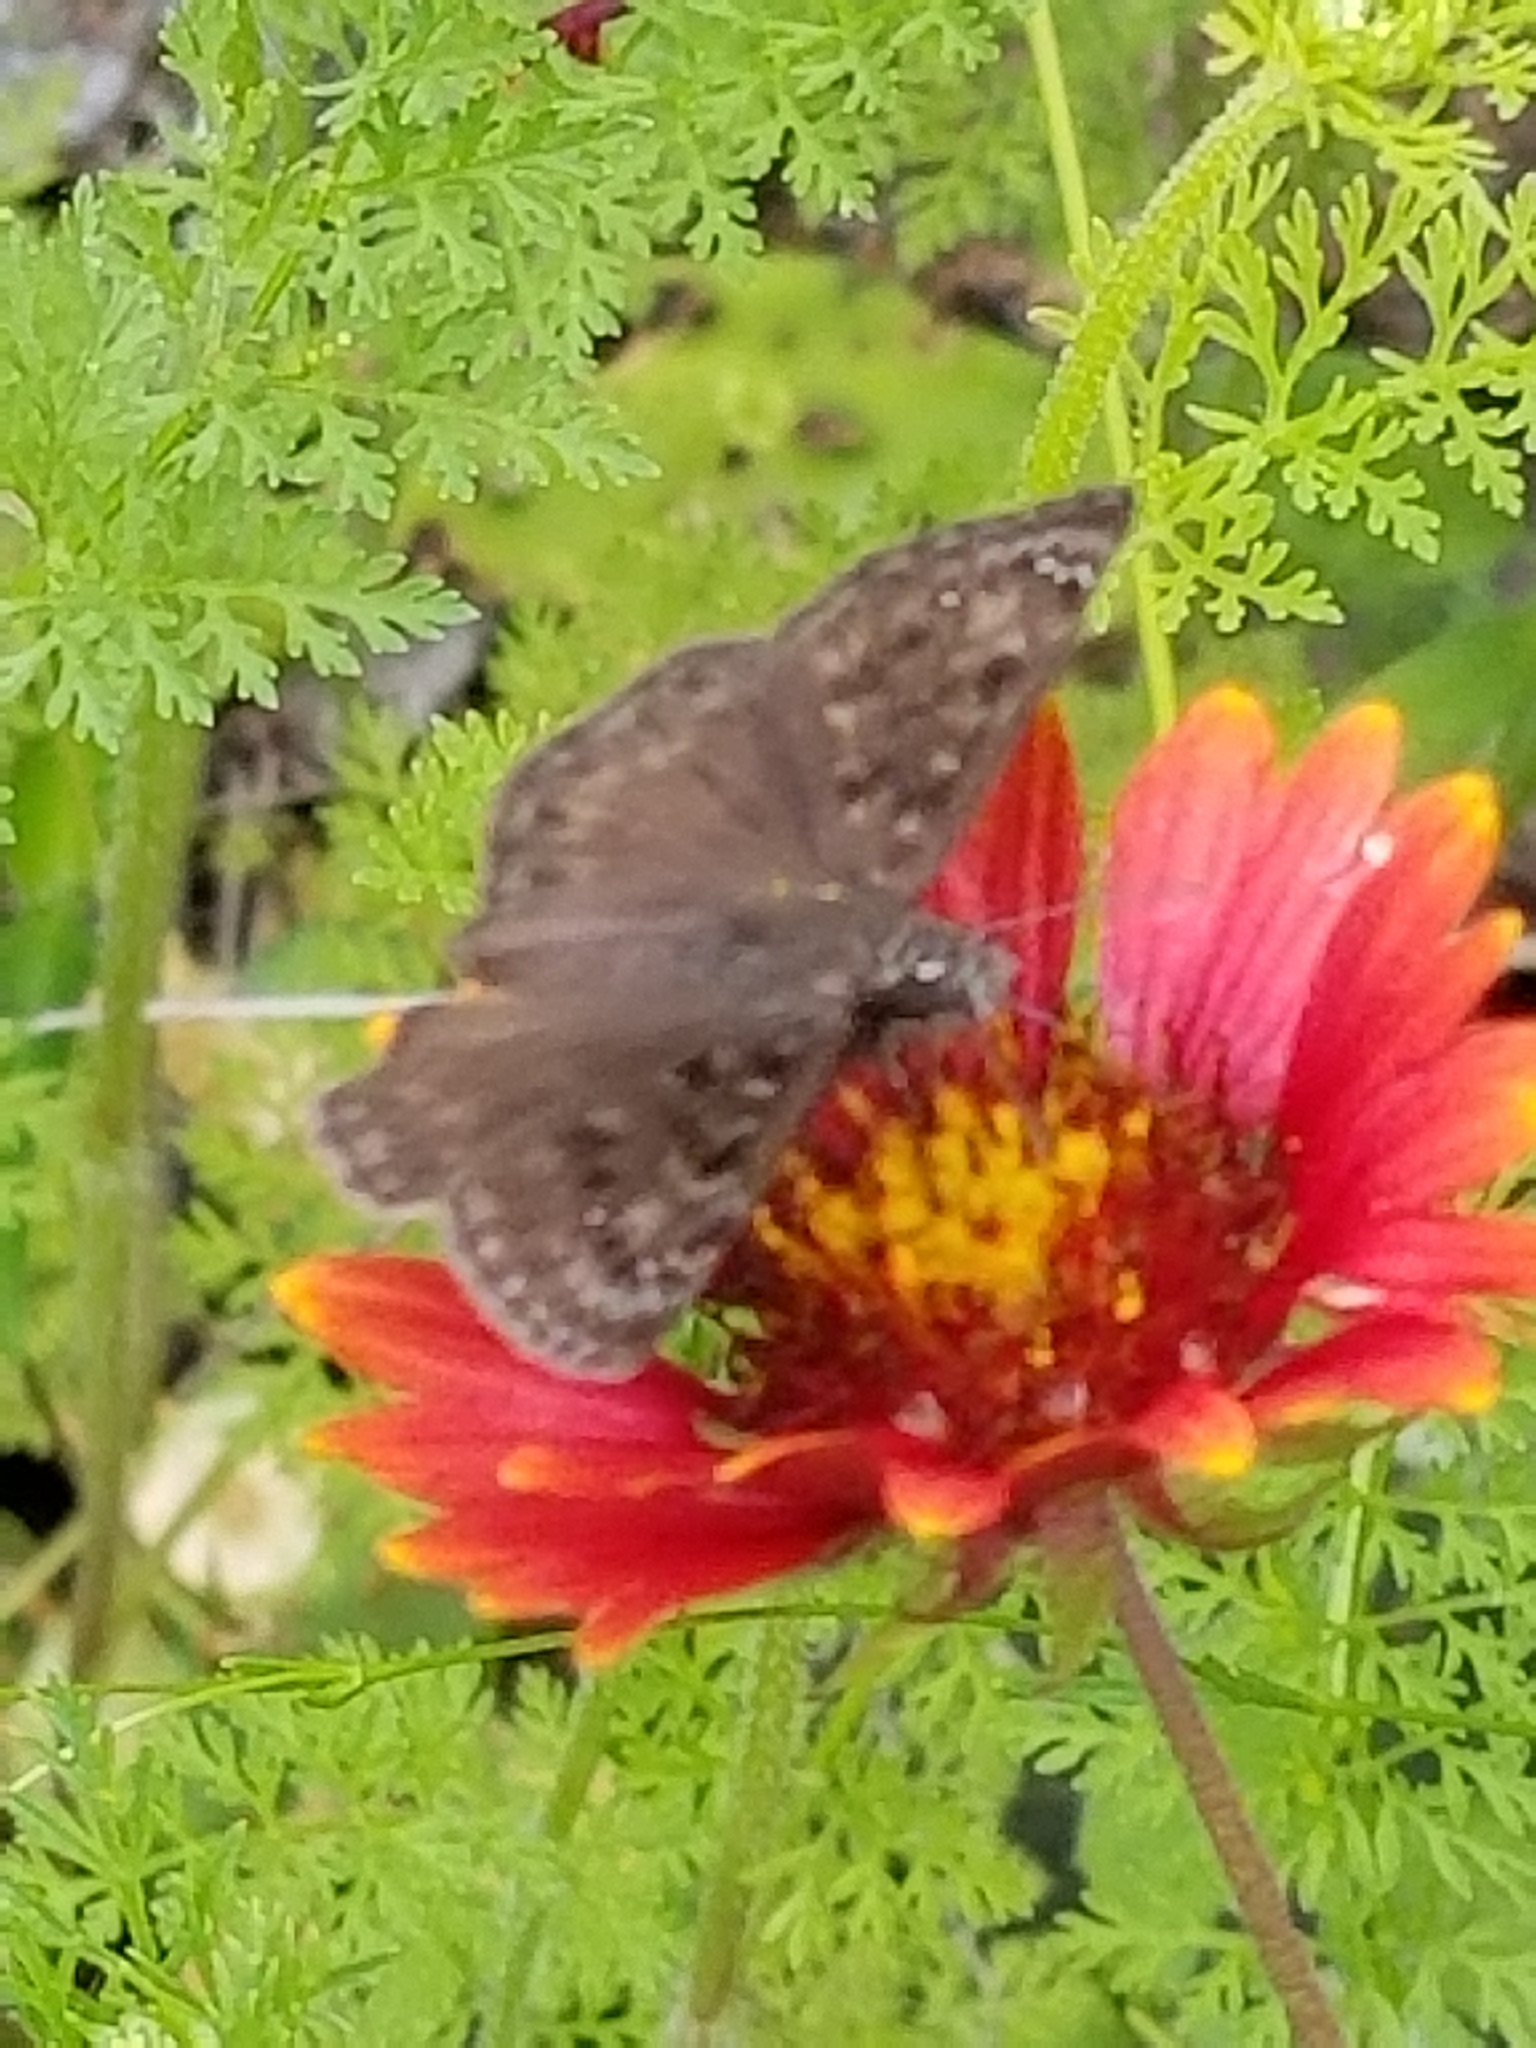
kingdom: Animalia
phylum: Arthropoda
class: Insecta
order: Lepidoptera
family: Hesperiidae
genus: Erynnis
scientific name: Erynnis horatius
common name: Horace's duskywing
